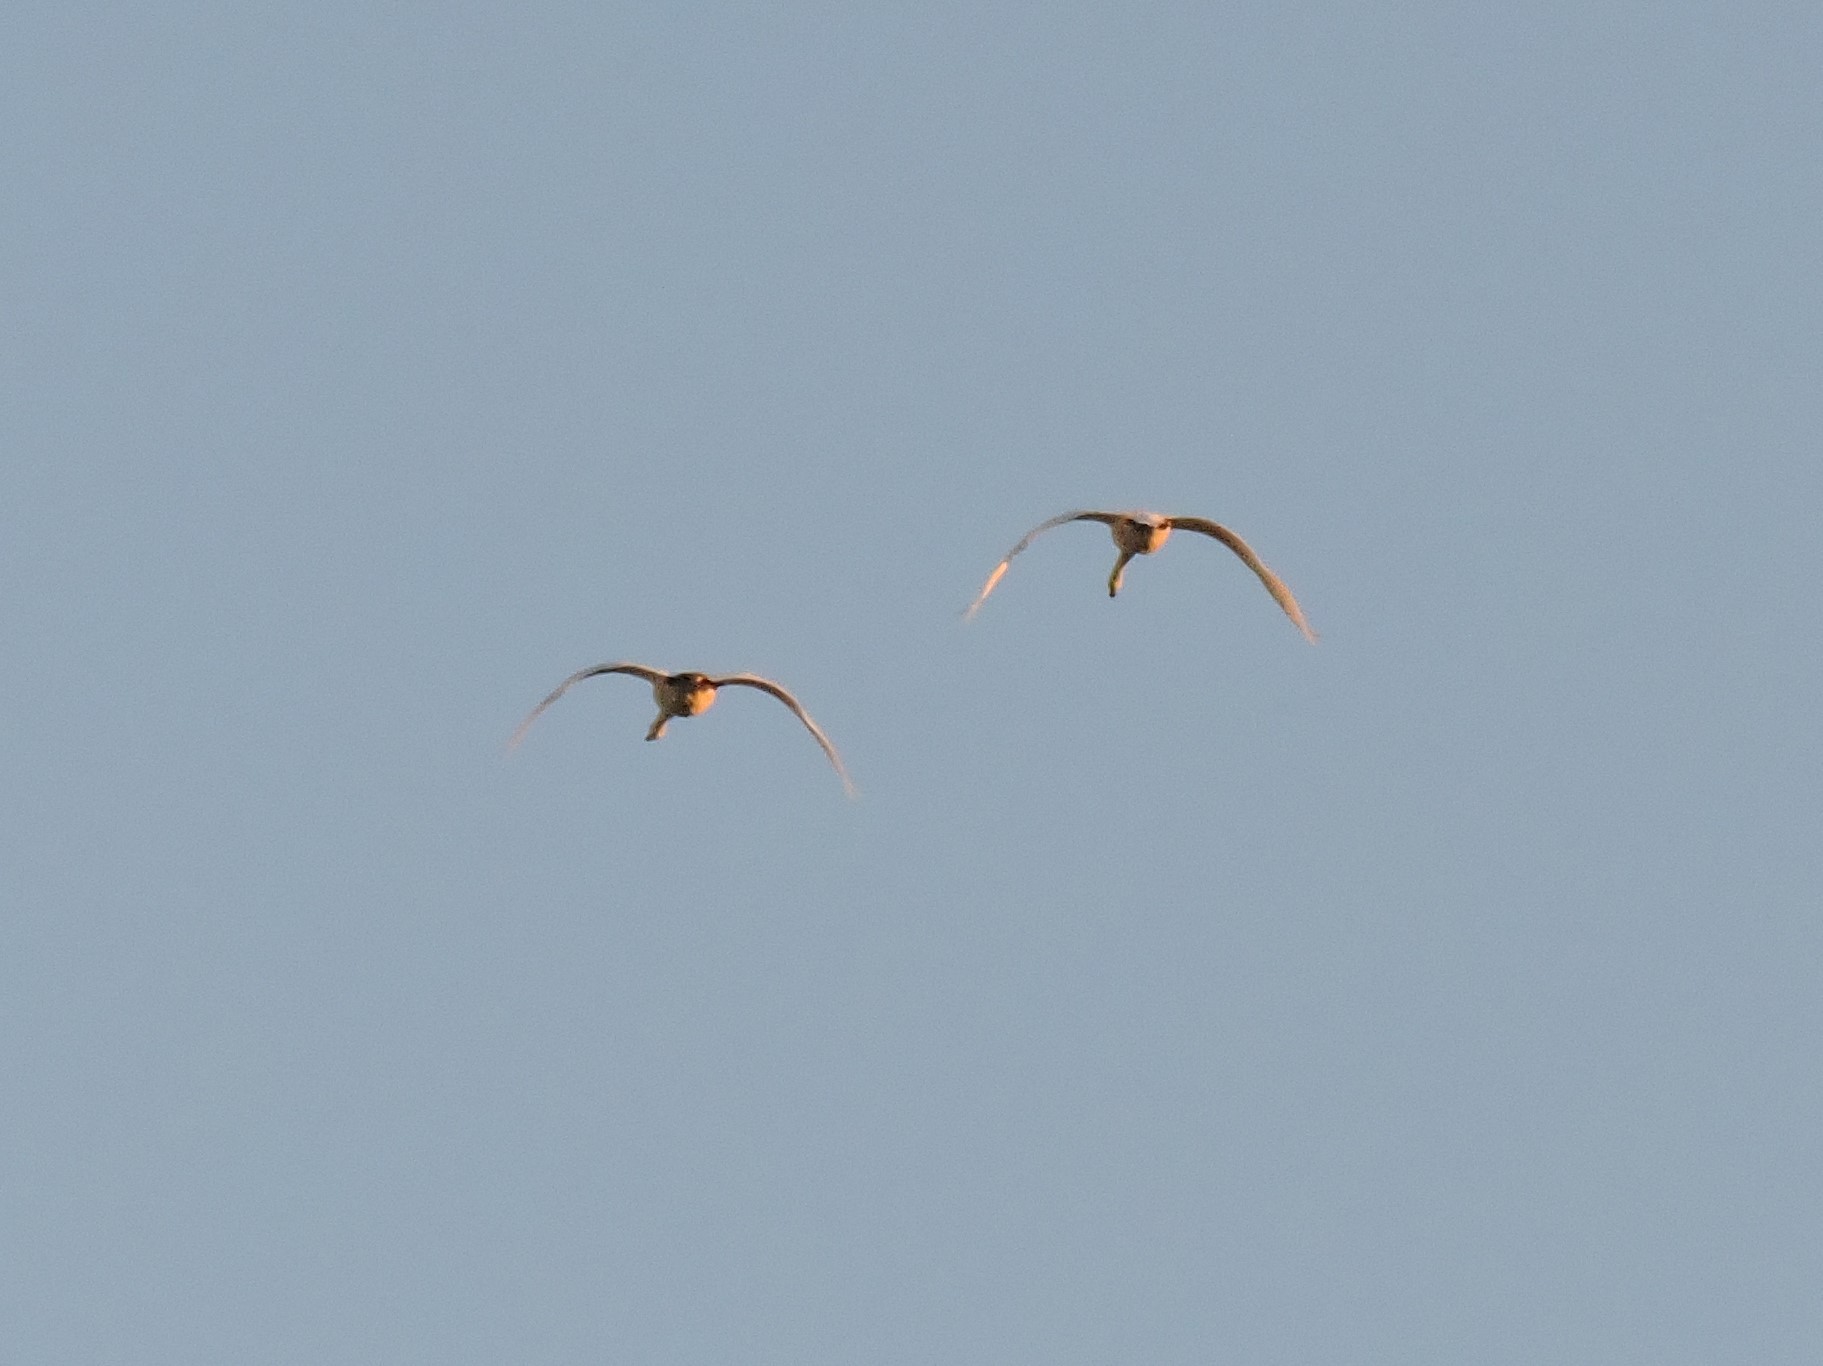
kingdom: Animalia
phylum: Chordata
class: Aves
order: Anseriformes
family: Anatidae
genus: Cygnus
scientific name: Cygnus
